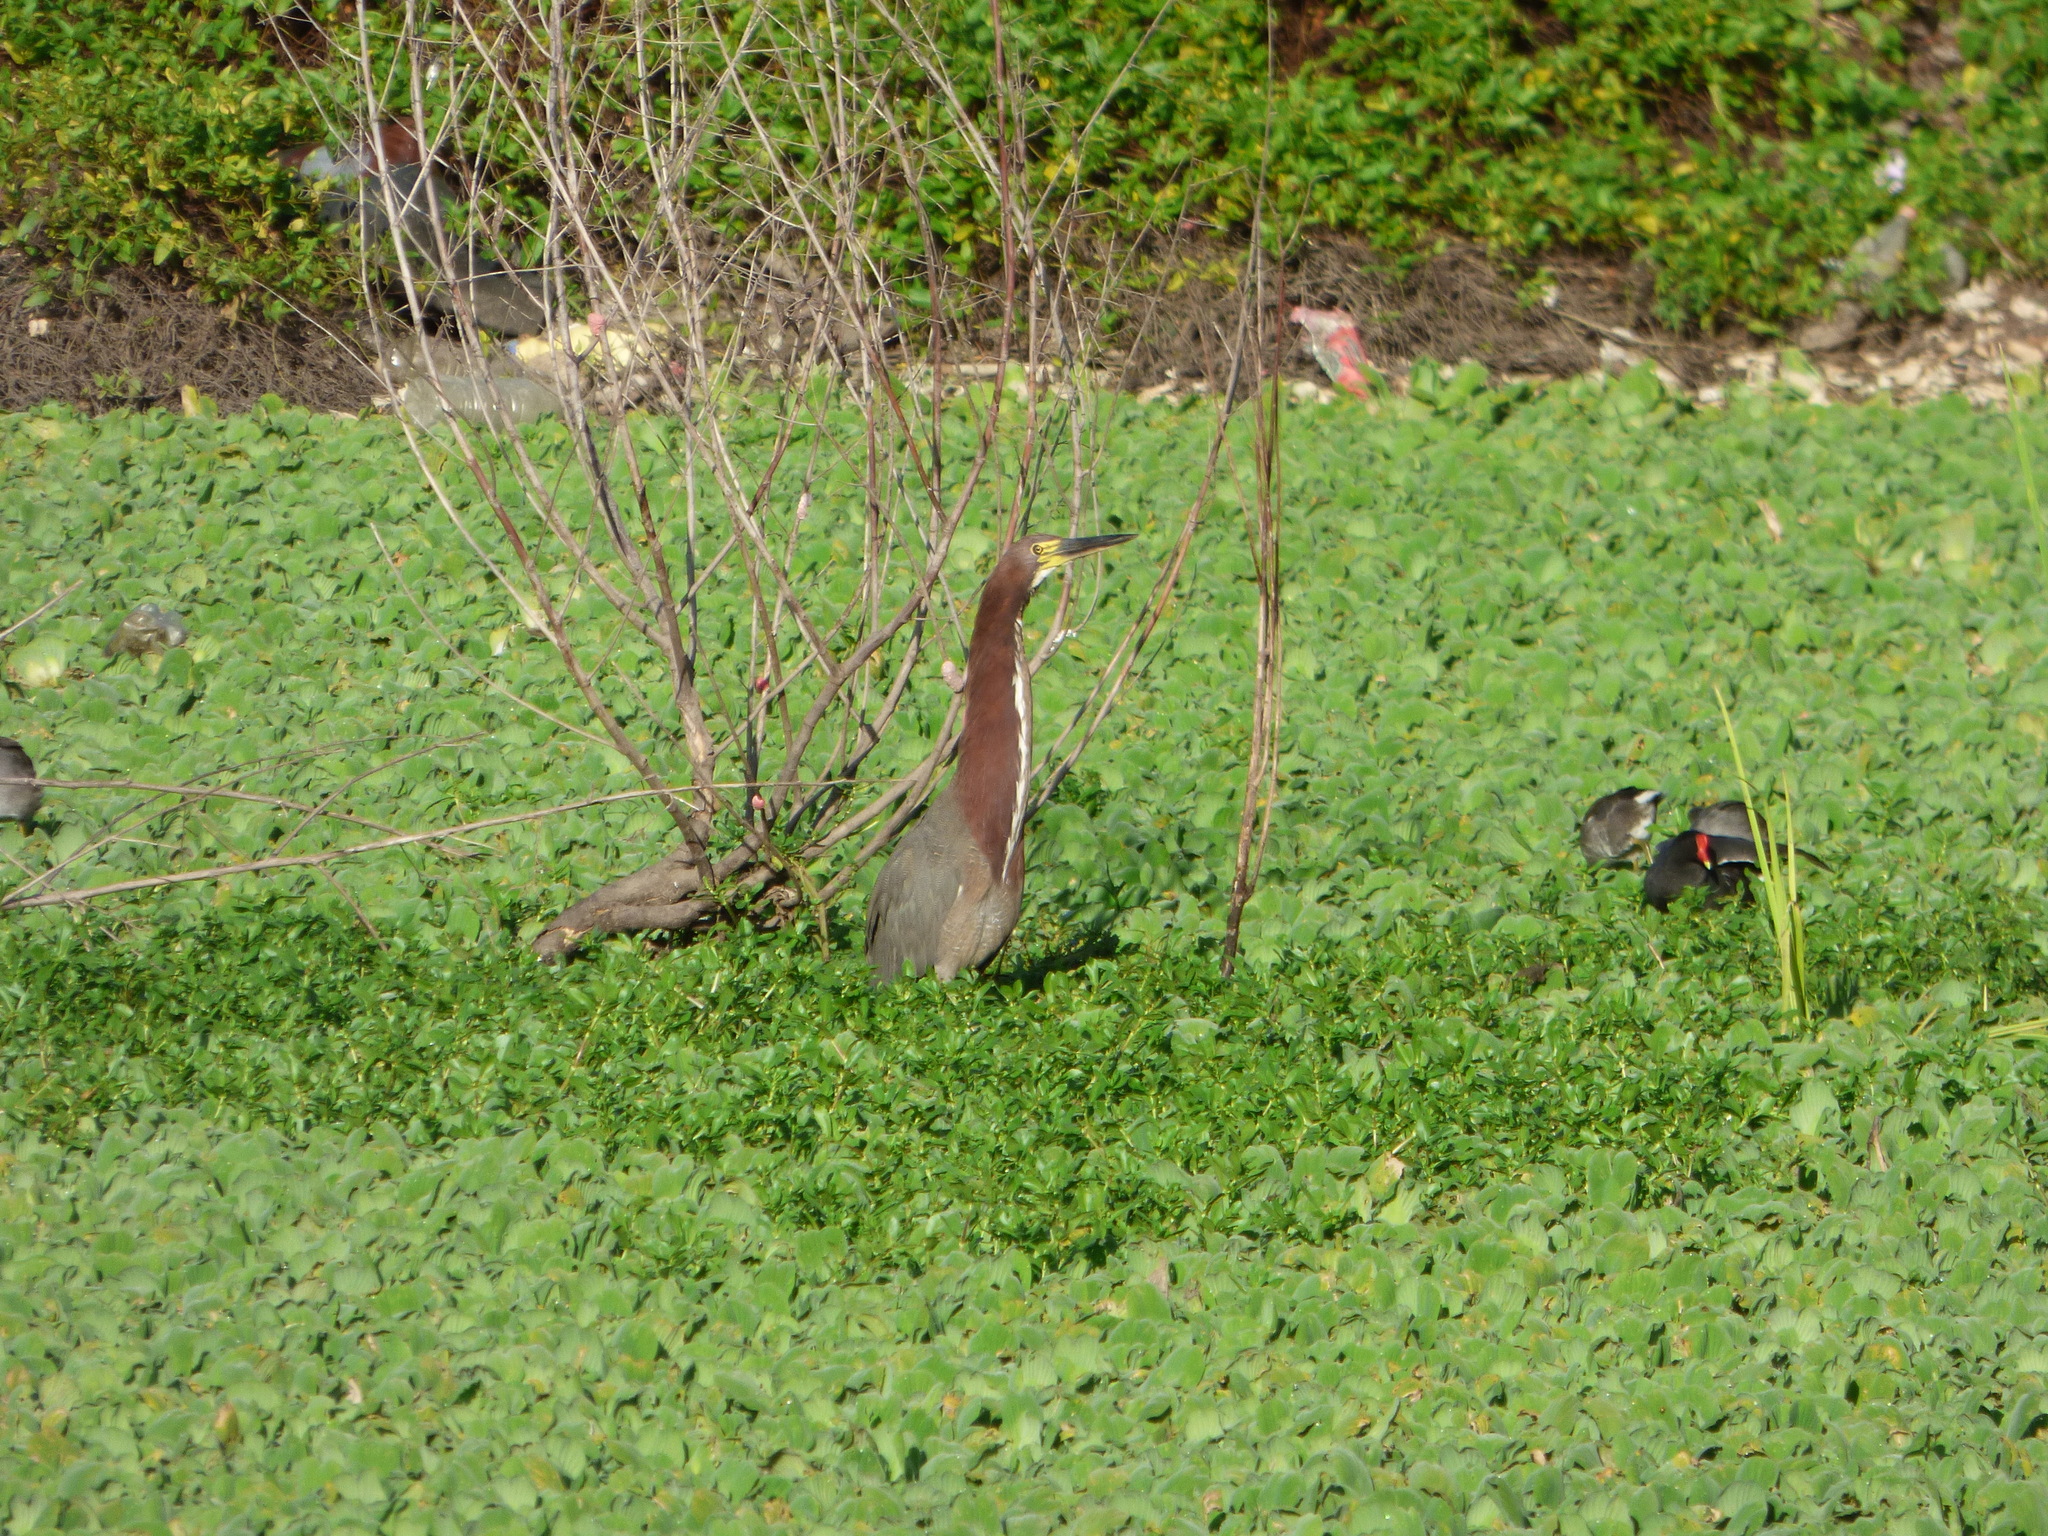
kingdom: Animalia
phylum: Chordata
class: Aves
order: Pelecaniformes
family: Ardeidae
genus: Tigrisoma
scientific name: Tigrisoma lineatum
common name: Rufescent tiger-heron
